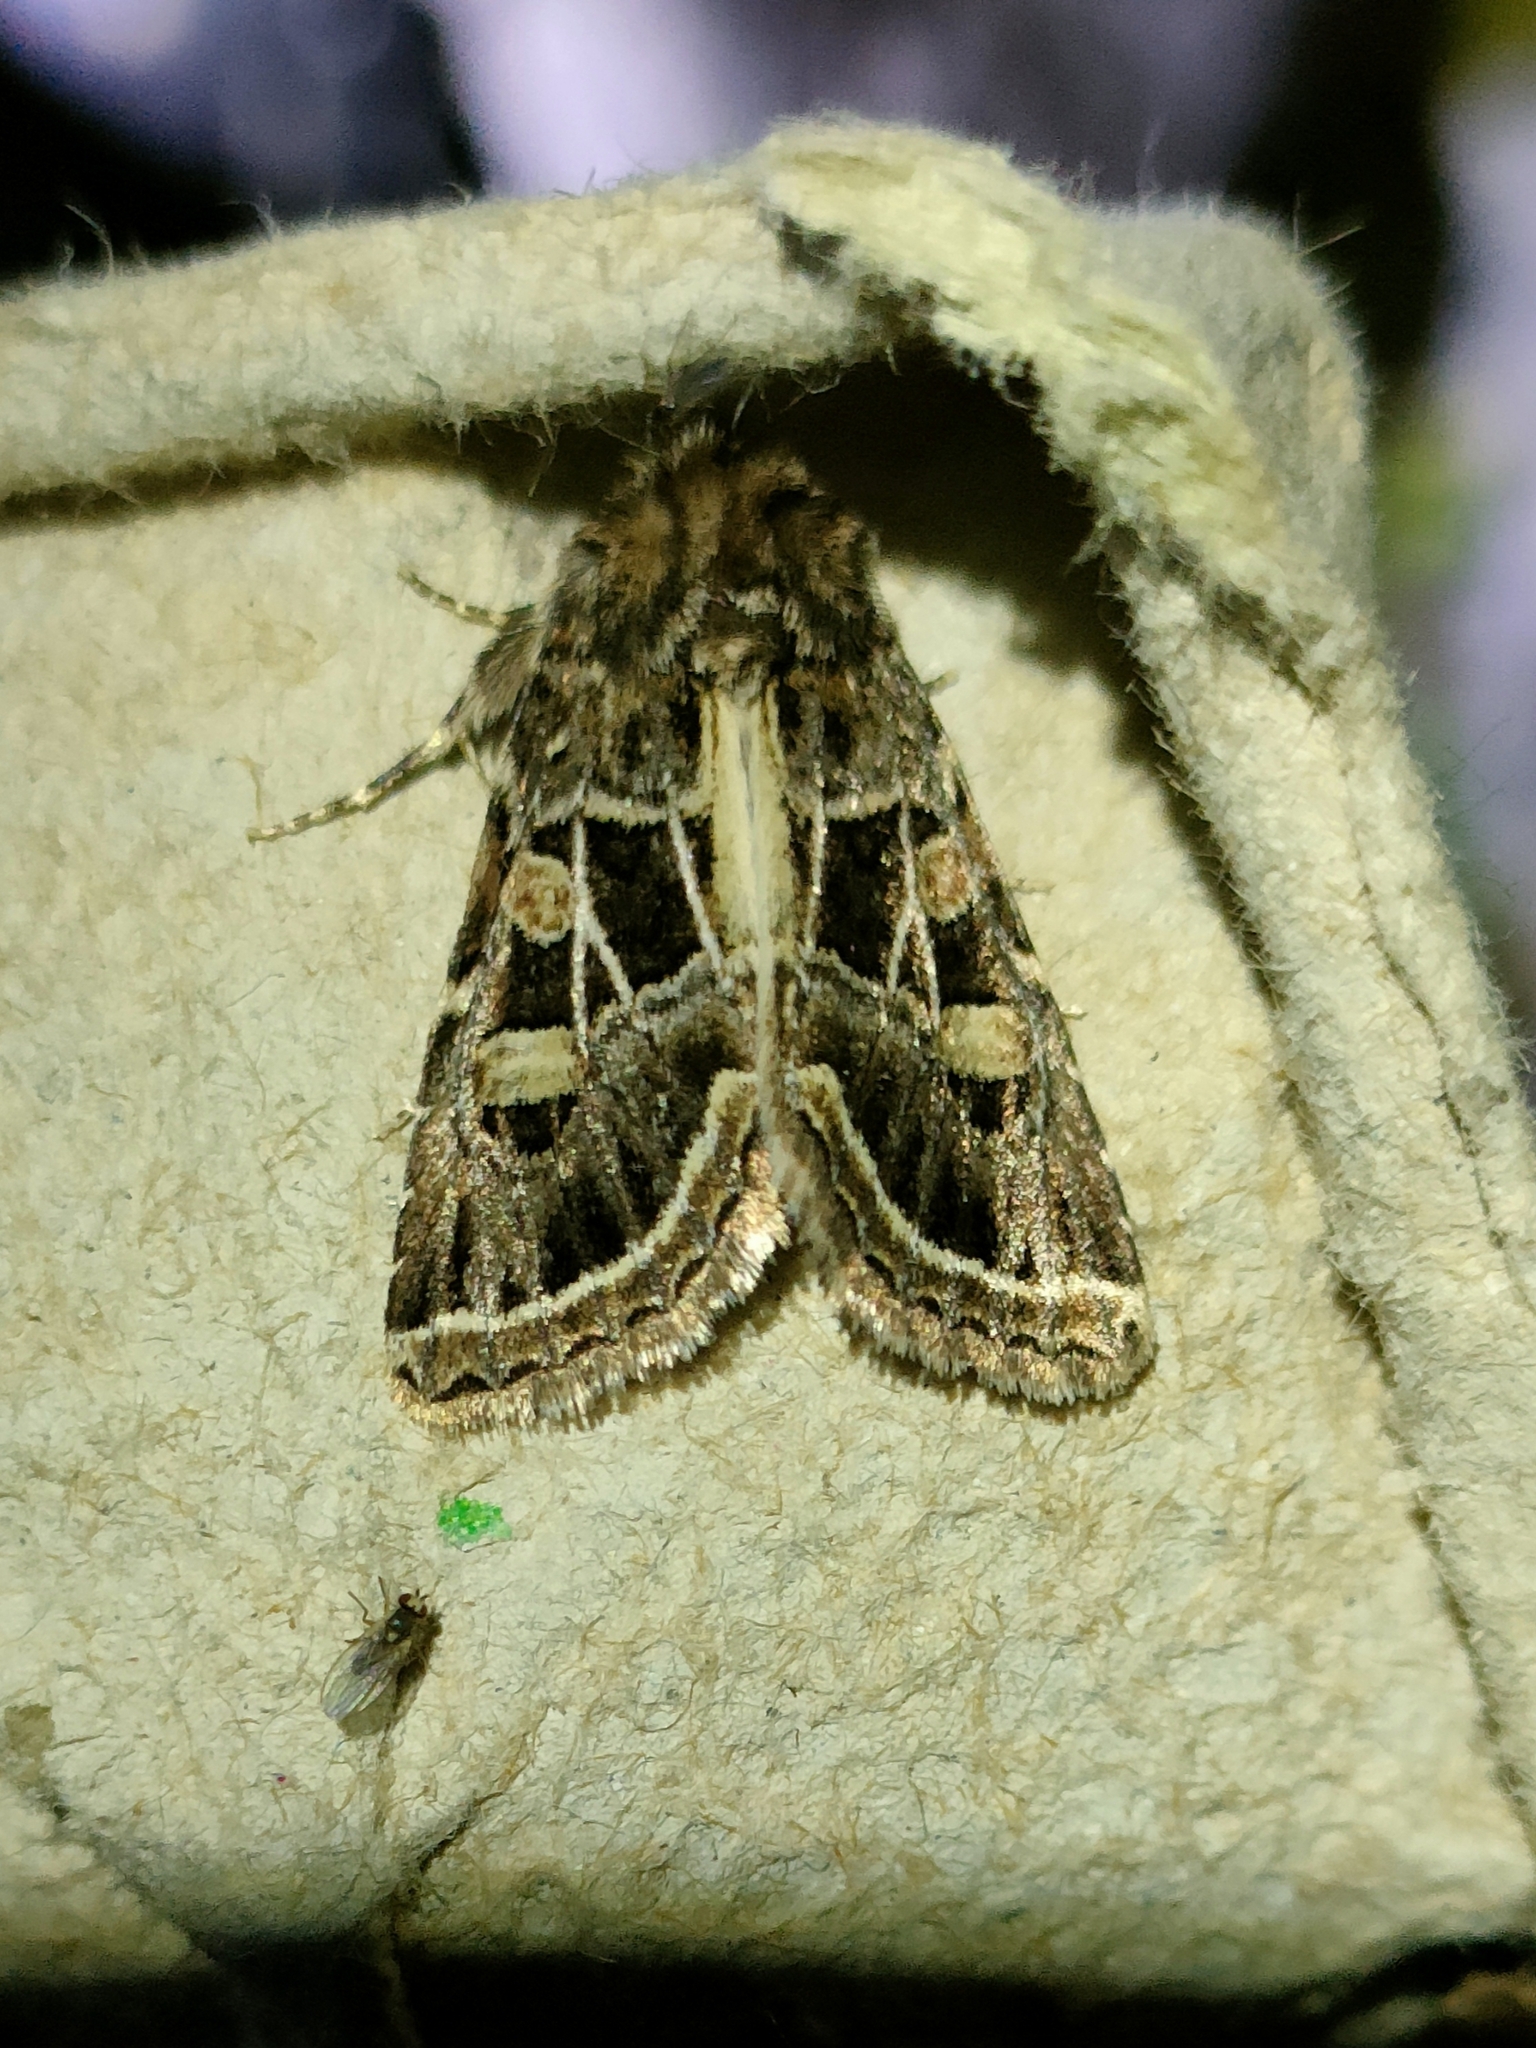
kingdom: Animalia
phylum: Arthropoda
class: Insecta
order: Lepidoptera
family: Noctuidae
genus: Leucochlaena
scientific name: Leucochlaena oditis
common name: Beautiful gothic
